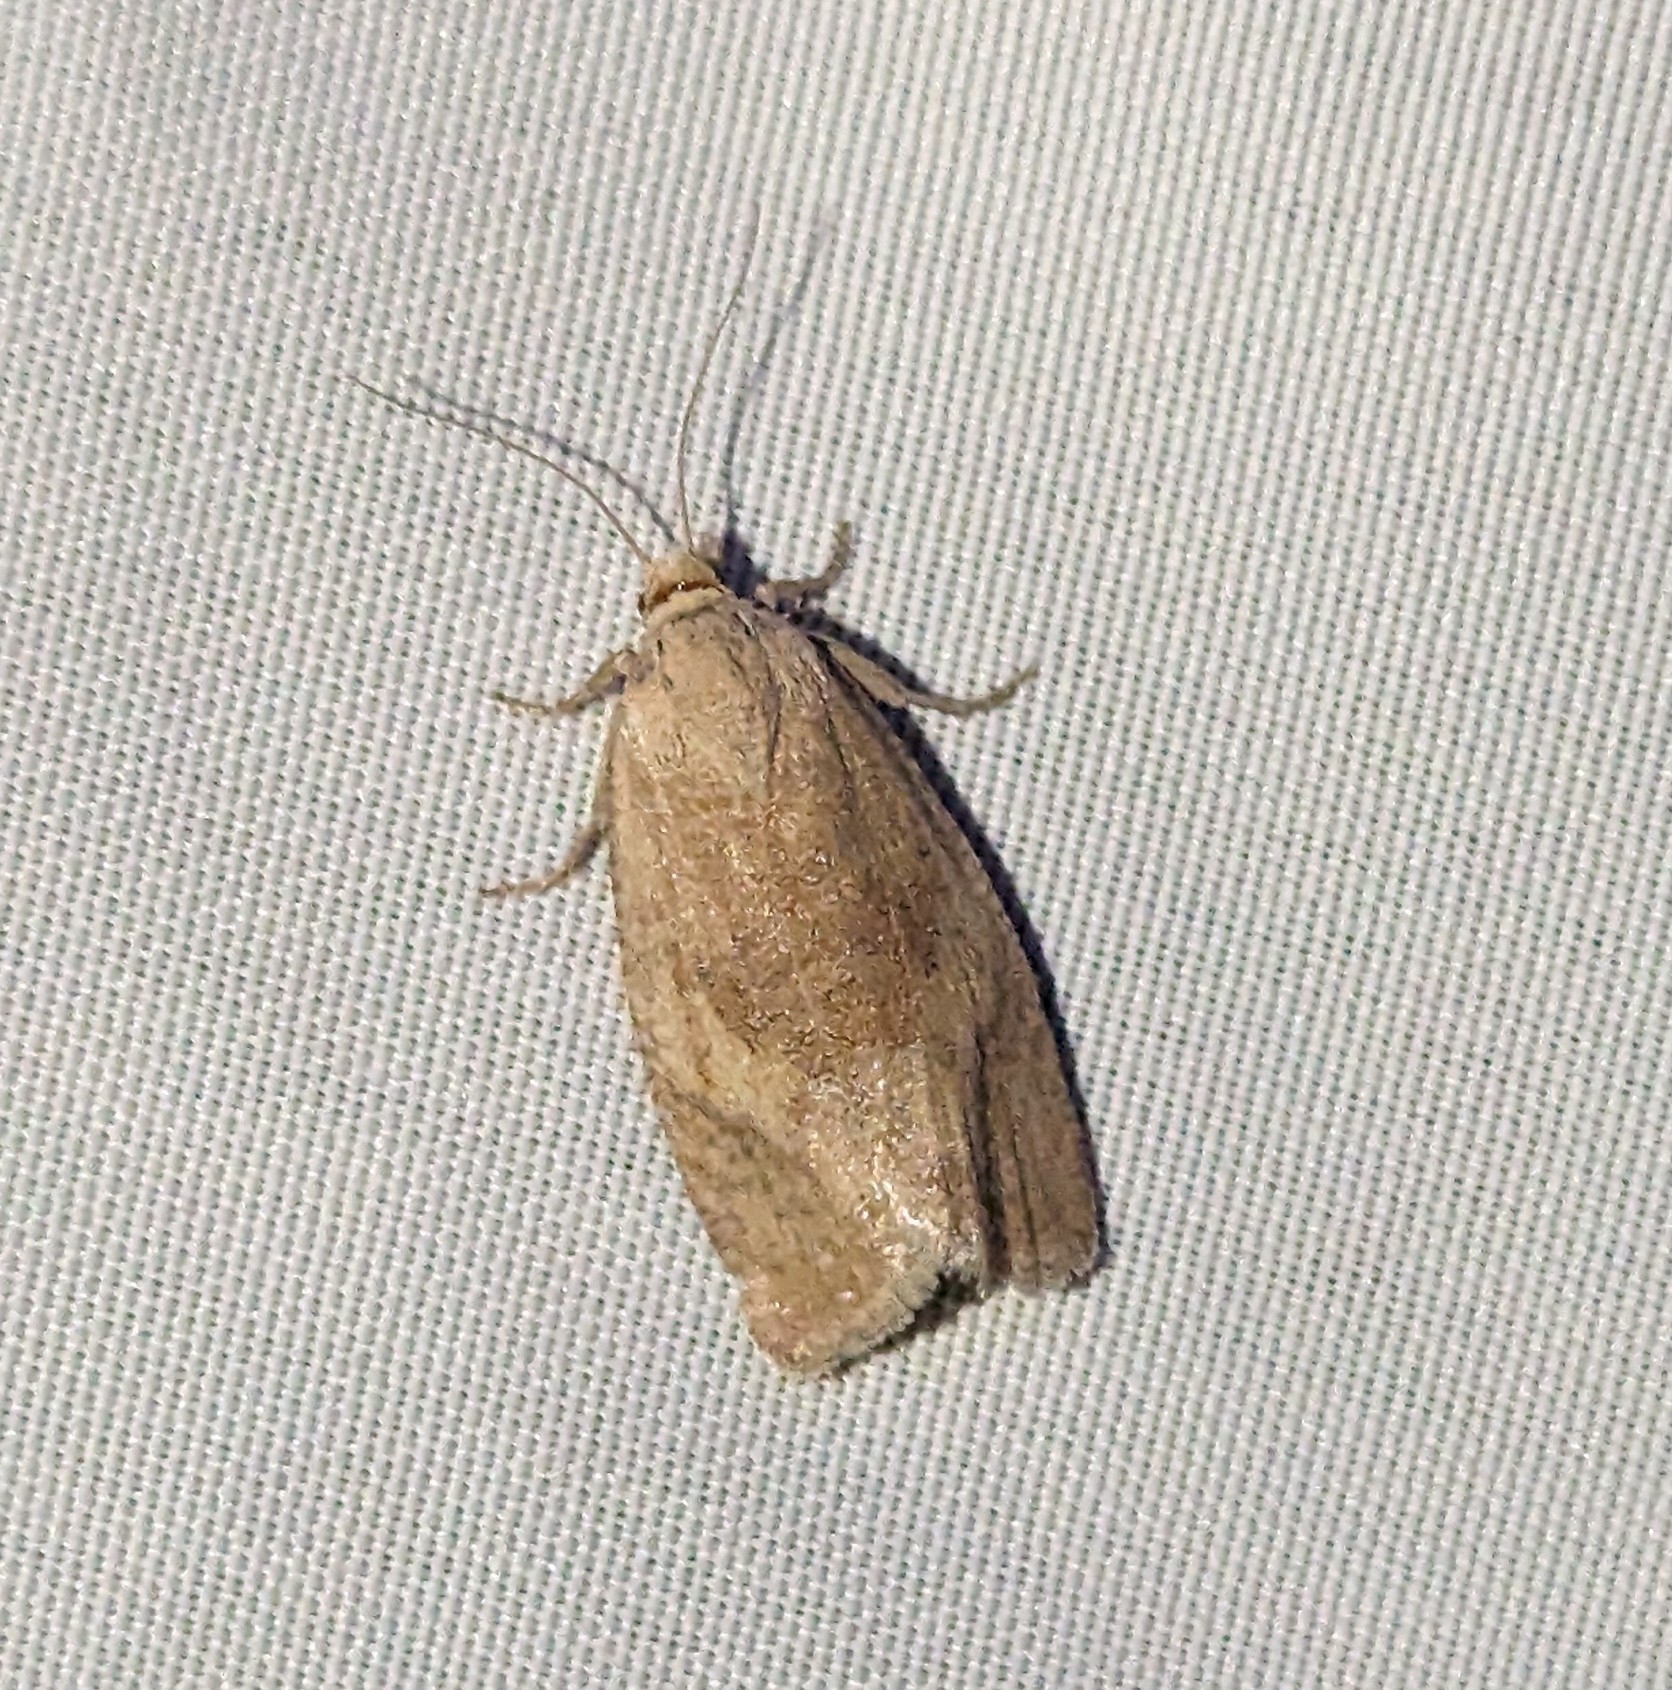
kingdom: Animalia
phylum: Arthropoda
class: Insecta
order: Lepidoptera
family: Tortricidae
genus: Pelochrista
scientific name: Pelochrista subflavana
